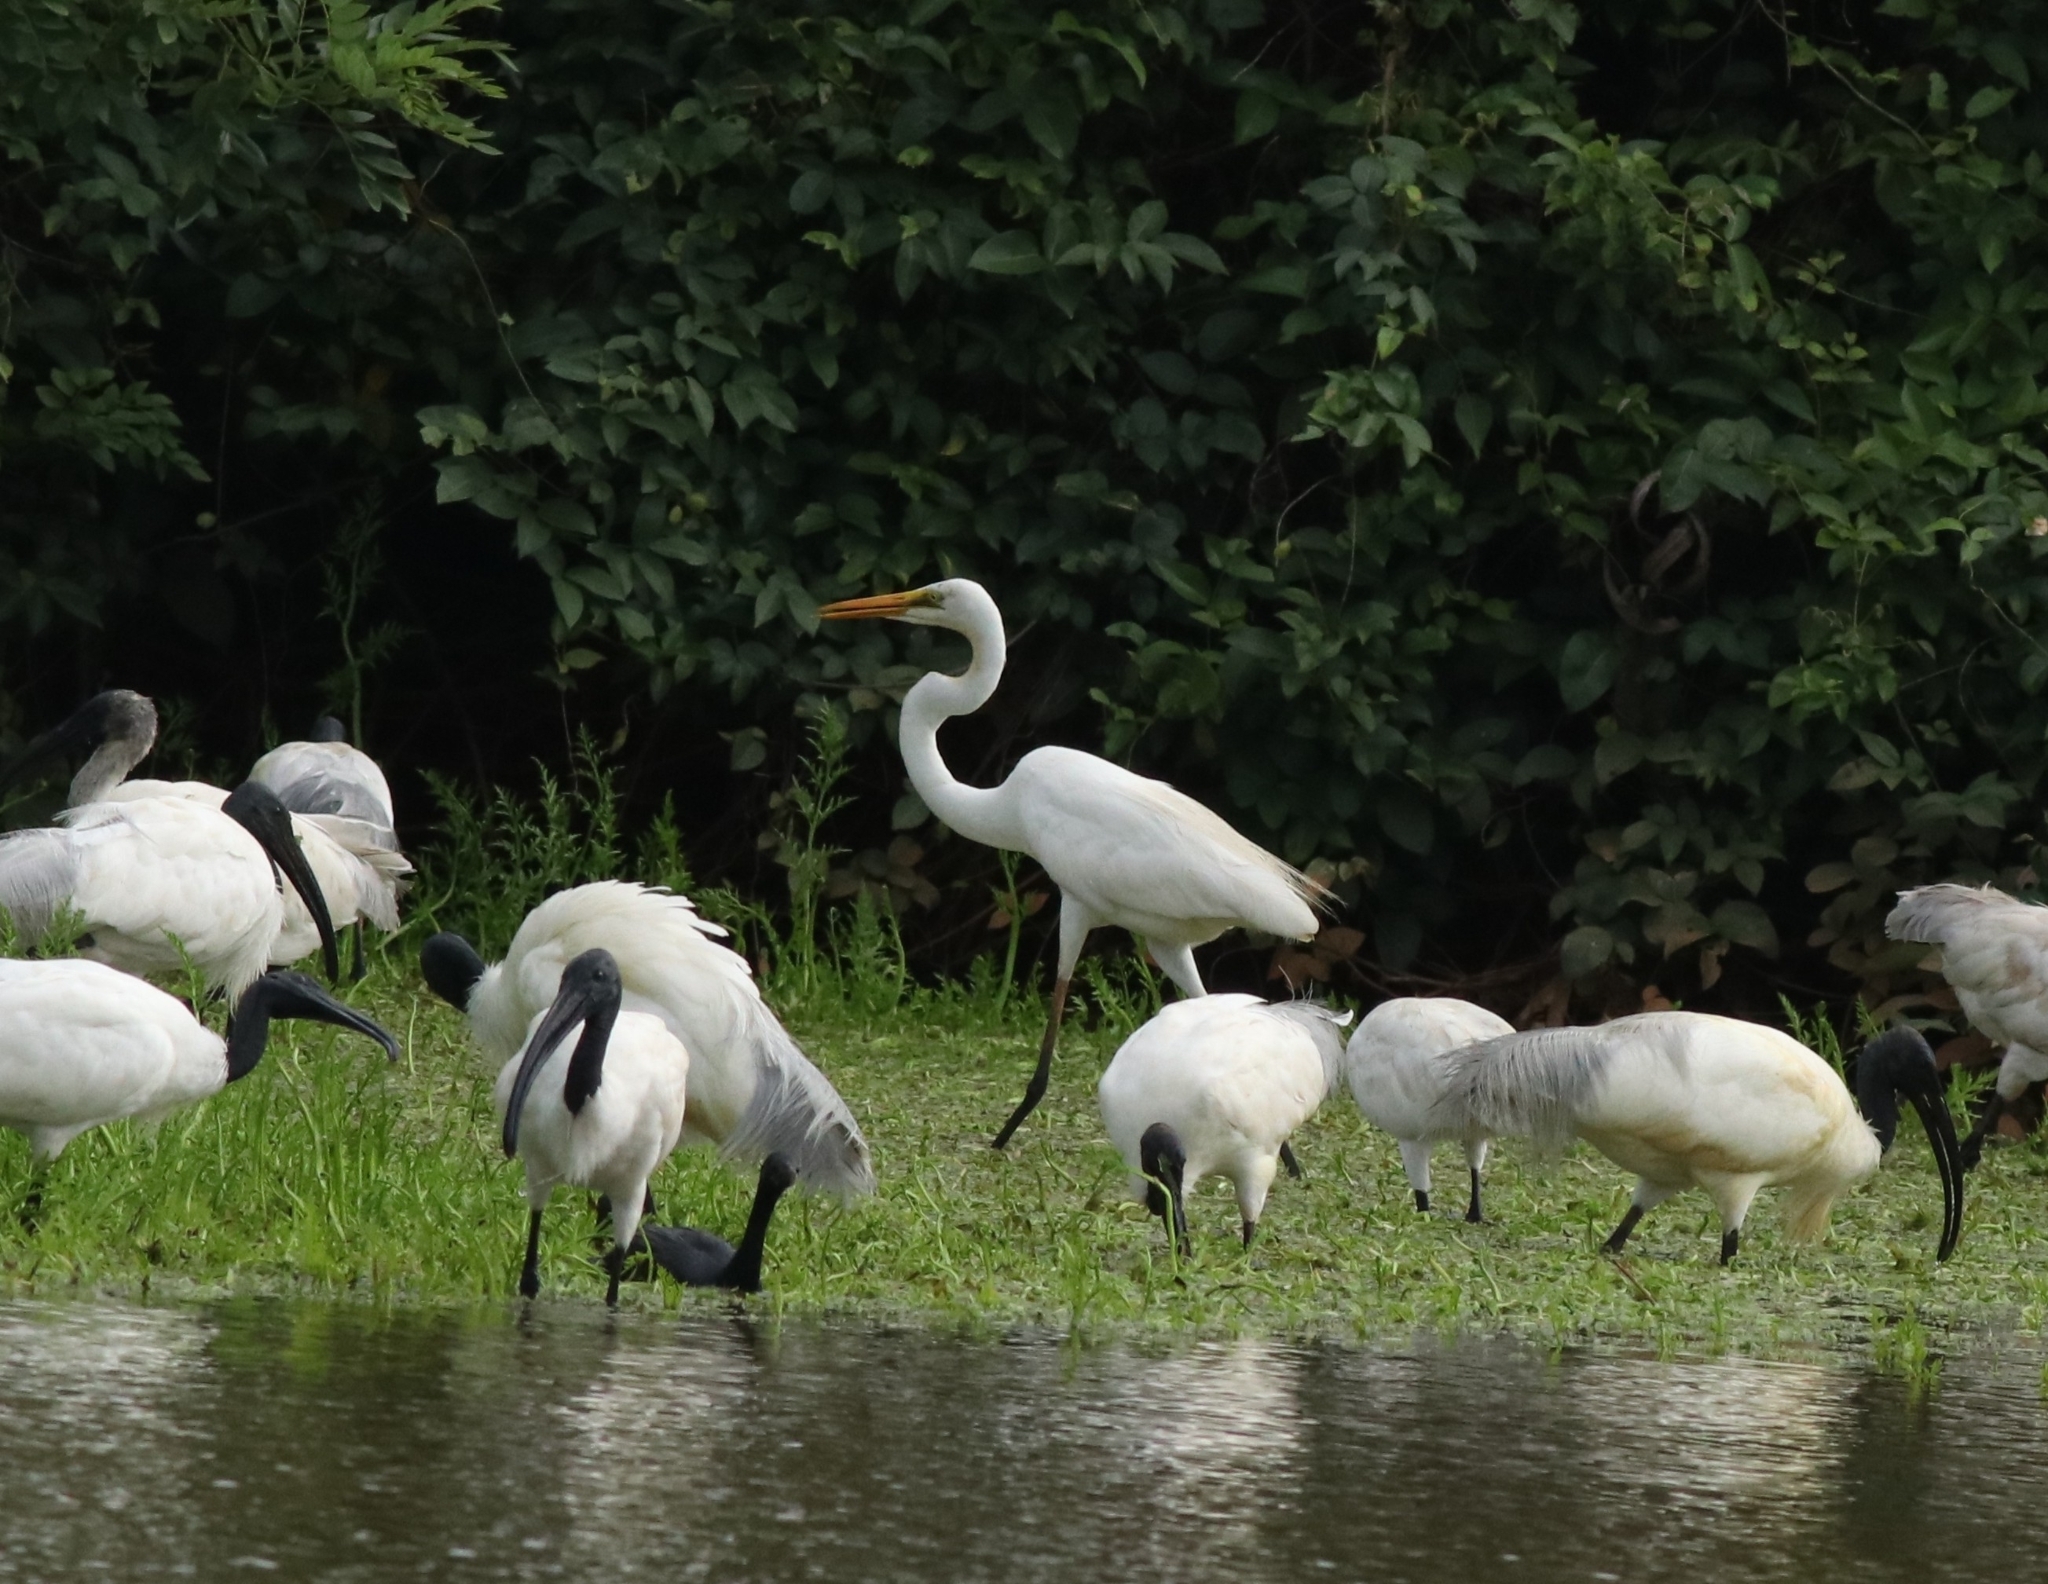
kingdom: Animalia
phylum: Chordata
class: Aves
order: Pelecaniformes
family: Ardeidae
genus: Ardea
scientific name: Ardea alba
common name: Great egret
